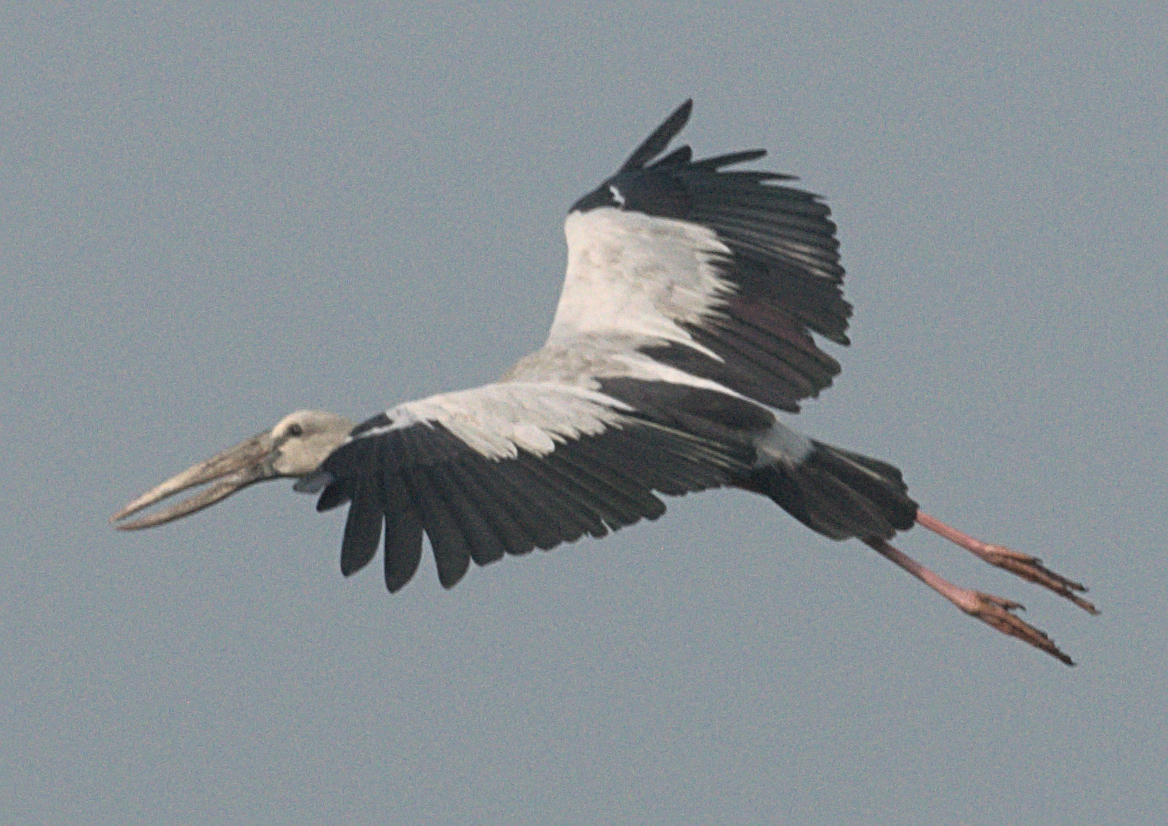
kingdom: Animalia
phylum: Chordata
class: Aves
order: Ciconiiformes
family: Ciconiidae
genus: Anastomus
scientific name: Anastomus oscitans
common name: Asian openbill
